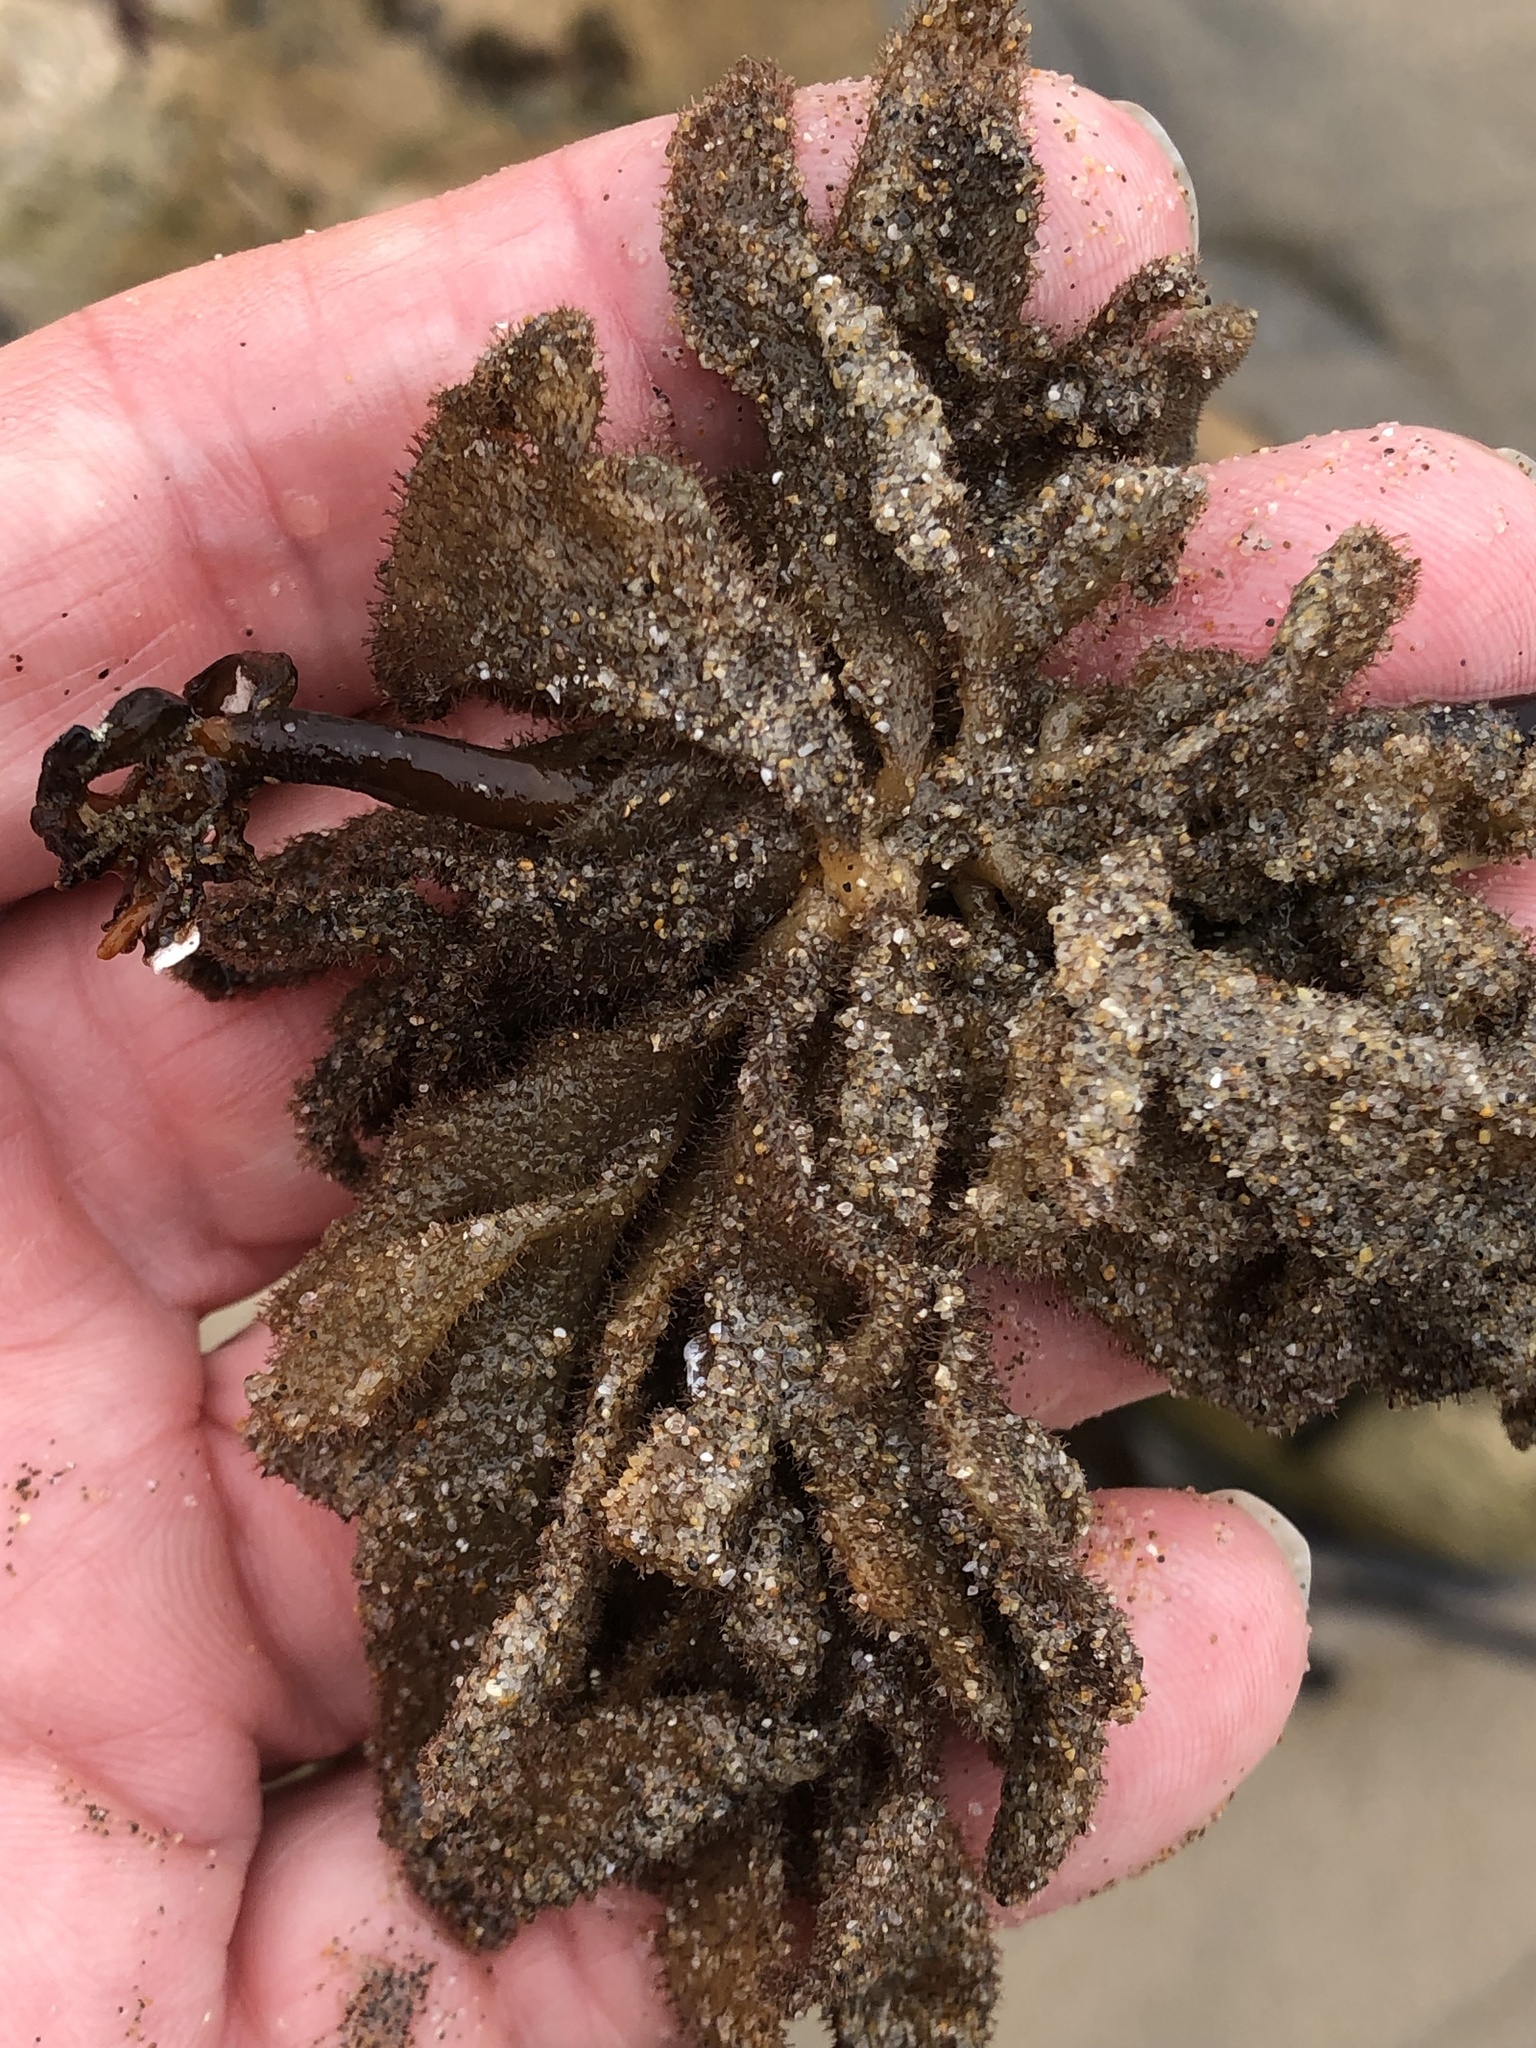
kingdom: Animalia
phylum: Bryozoa
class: Gymnolaemata
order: Ctenostomatida
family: Flustrellidridae
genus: Flustrellidra
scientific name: Flustrellidra corniculata
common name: Spiny leather bryozoan
